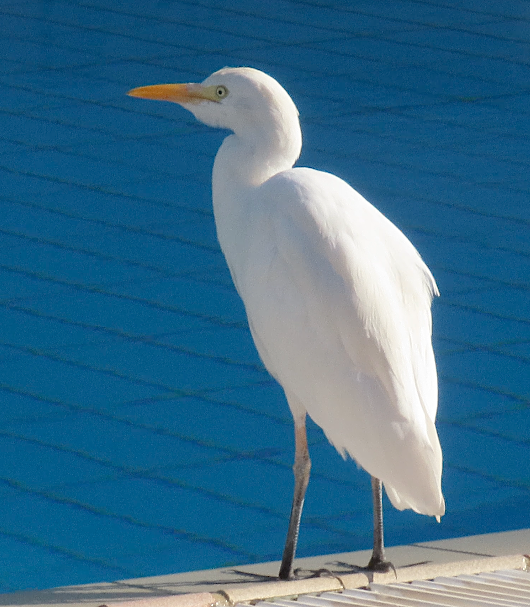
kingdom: Animalia
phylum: Chordata
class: Aves
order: Pelecaniformes
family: Ardeidae
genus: Bubulcus
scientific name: Bubulcus ibis
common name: Cattle egret
